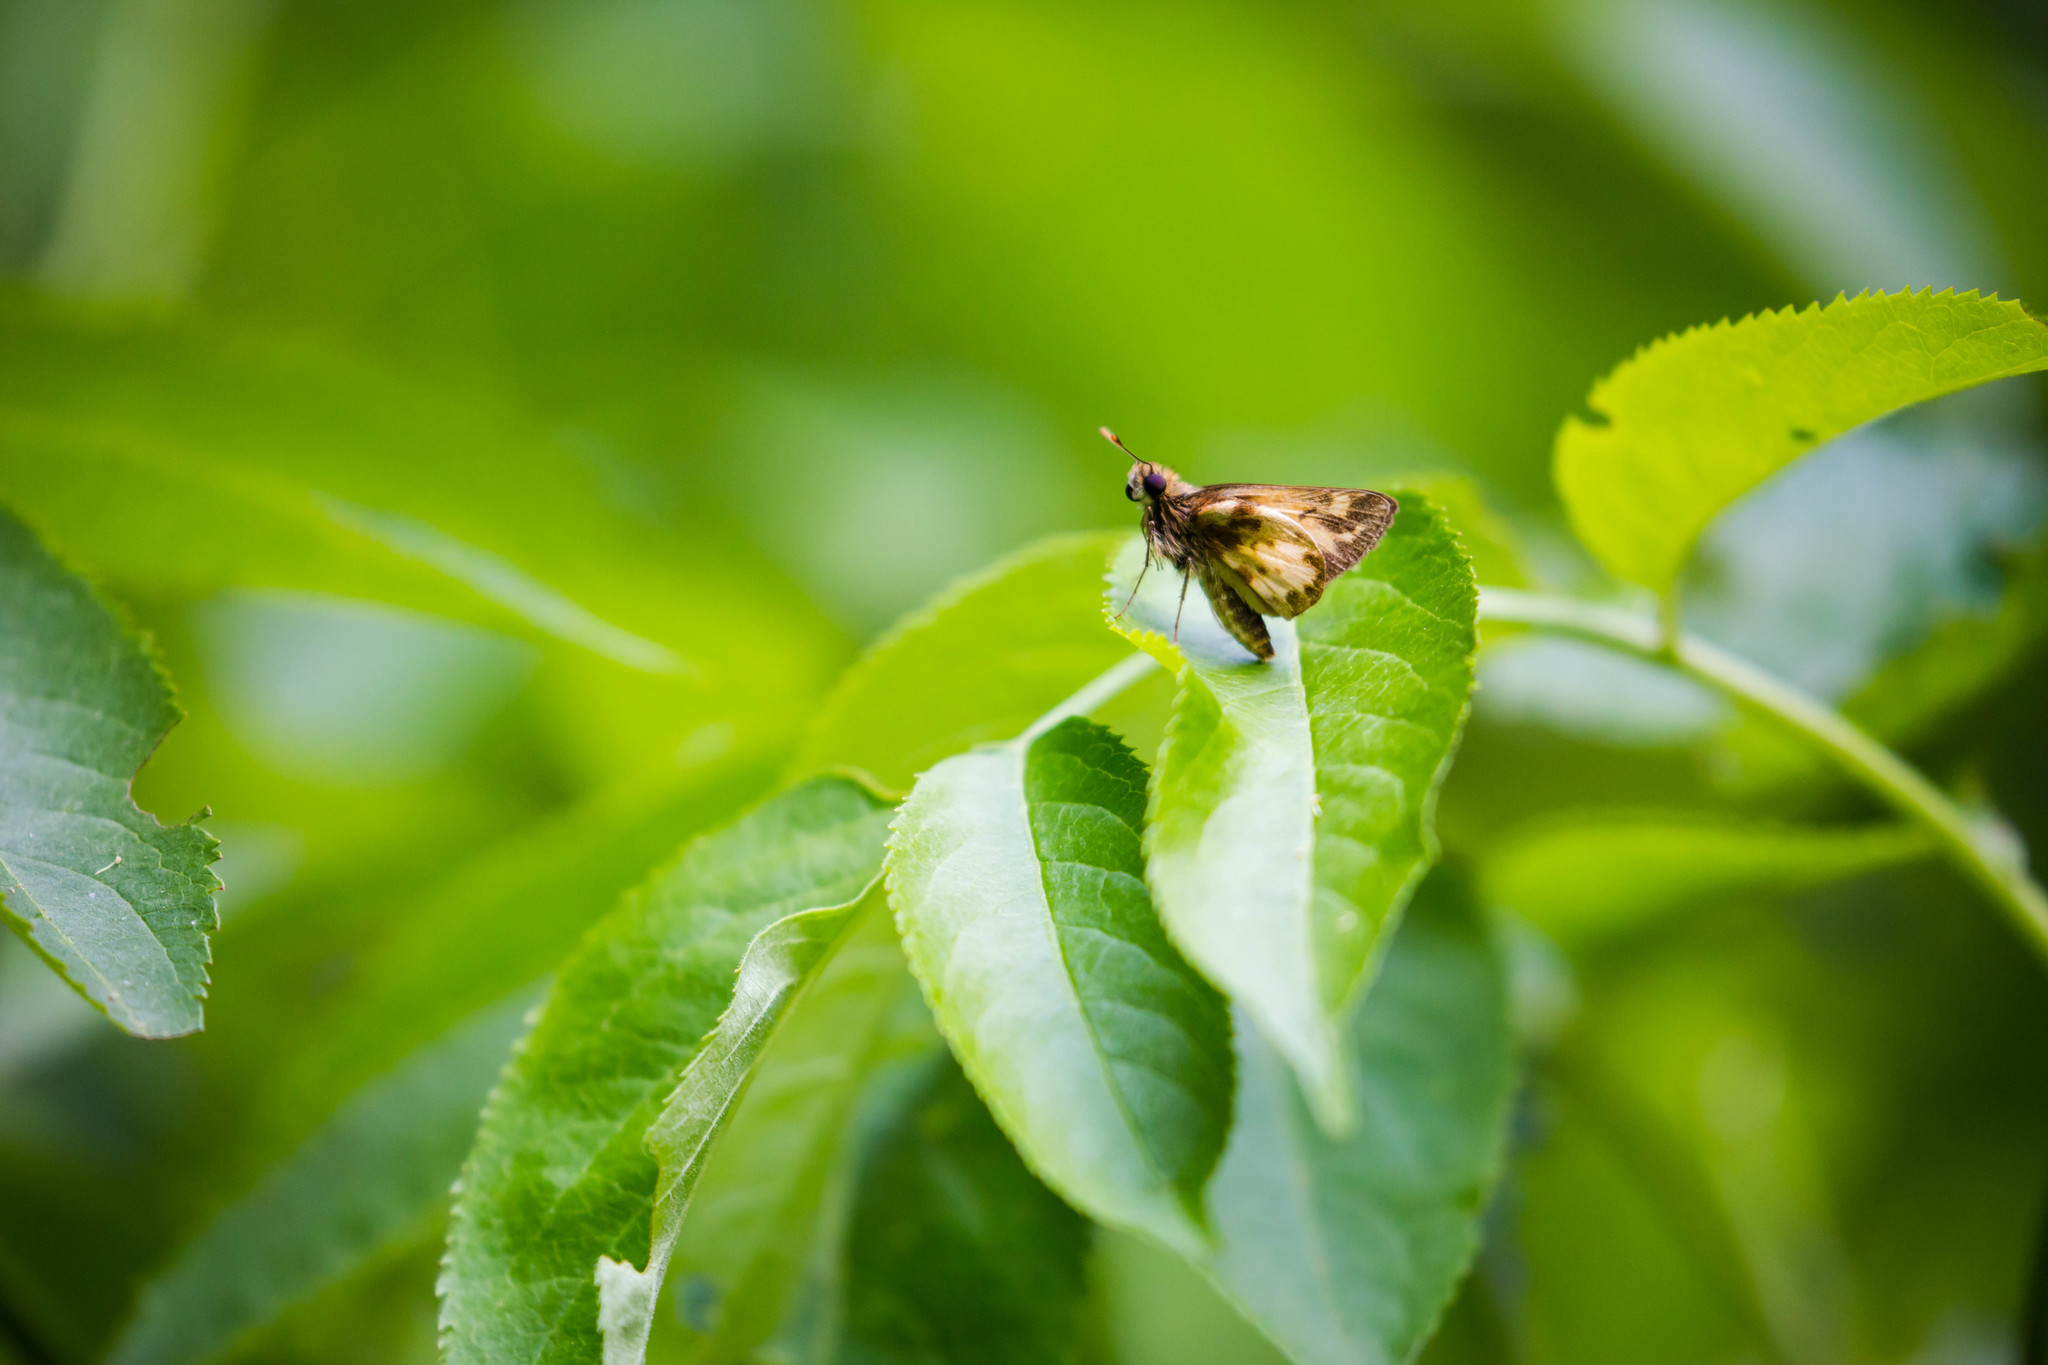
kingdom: Animalia
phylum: Arthropoda
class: Insecta
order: Lepidoptera
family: Hesperiidae
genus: Lon
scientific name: Lon zabulon
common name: Zabulon skipper
